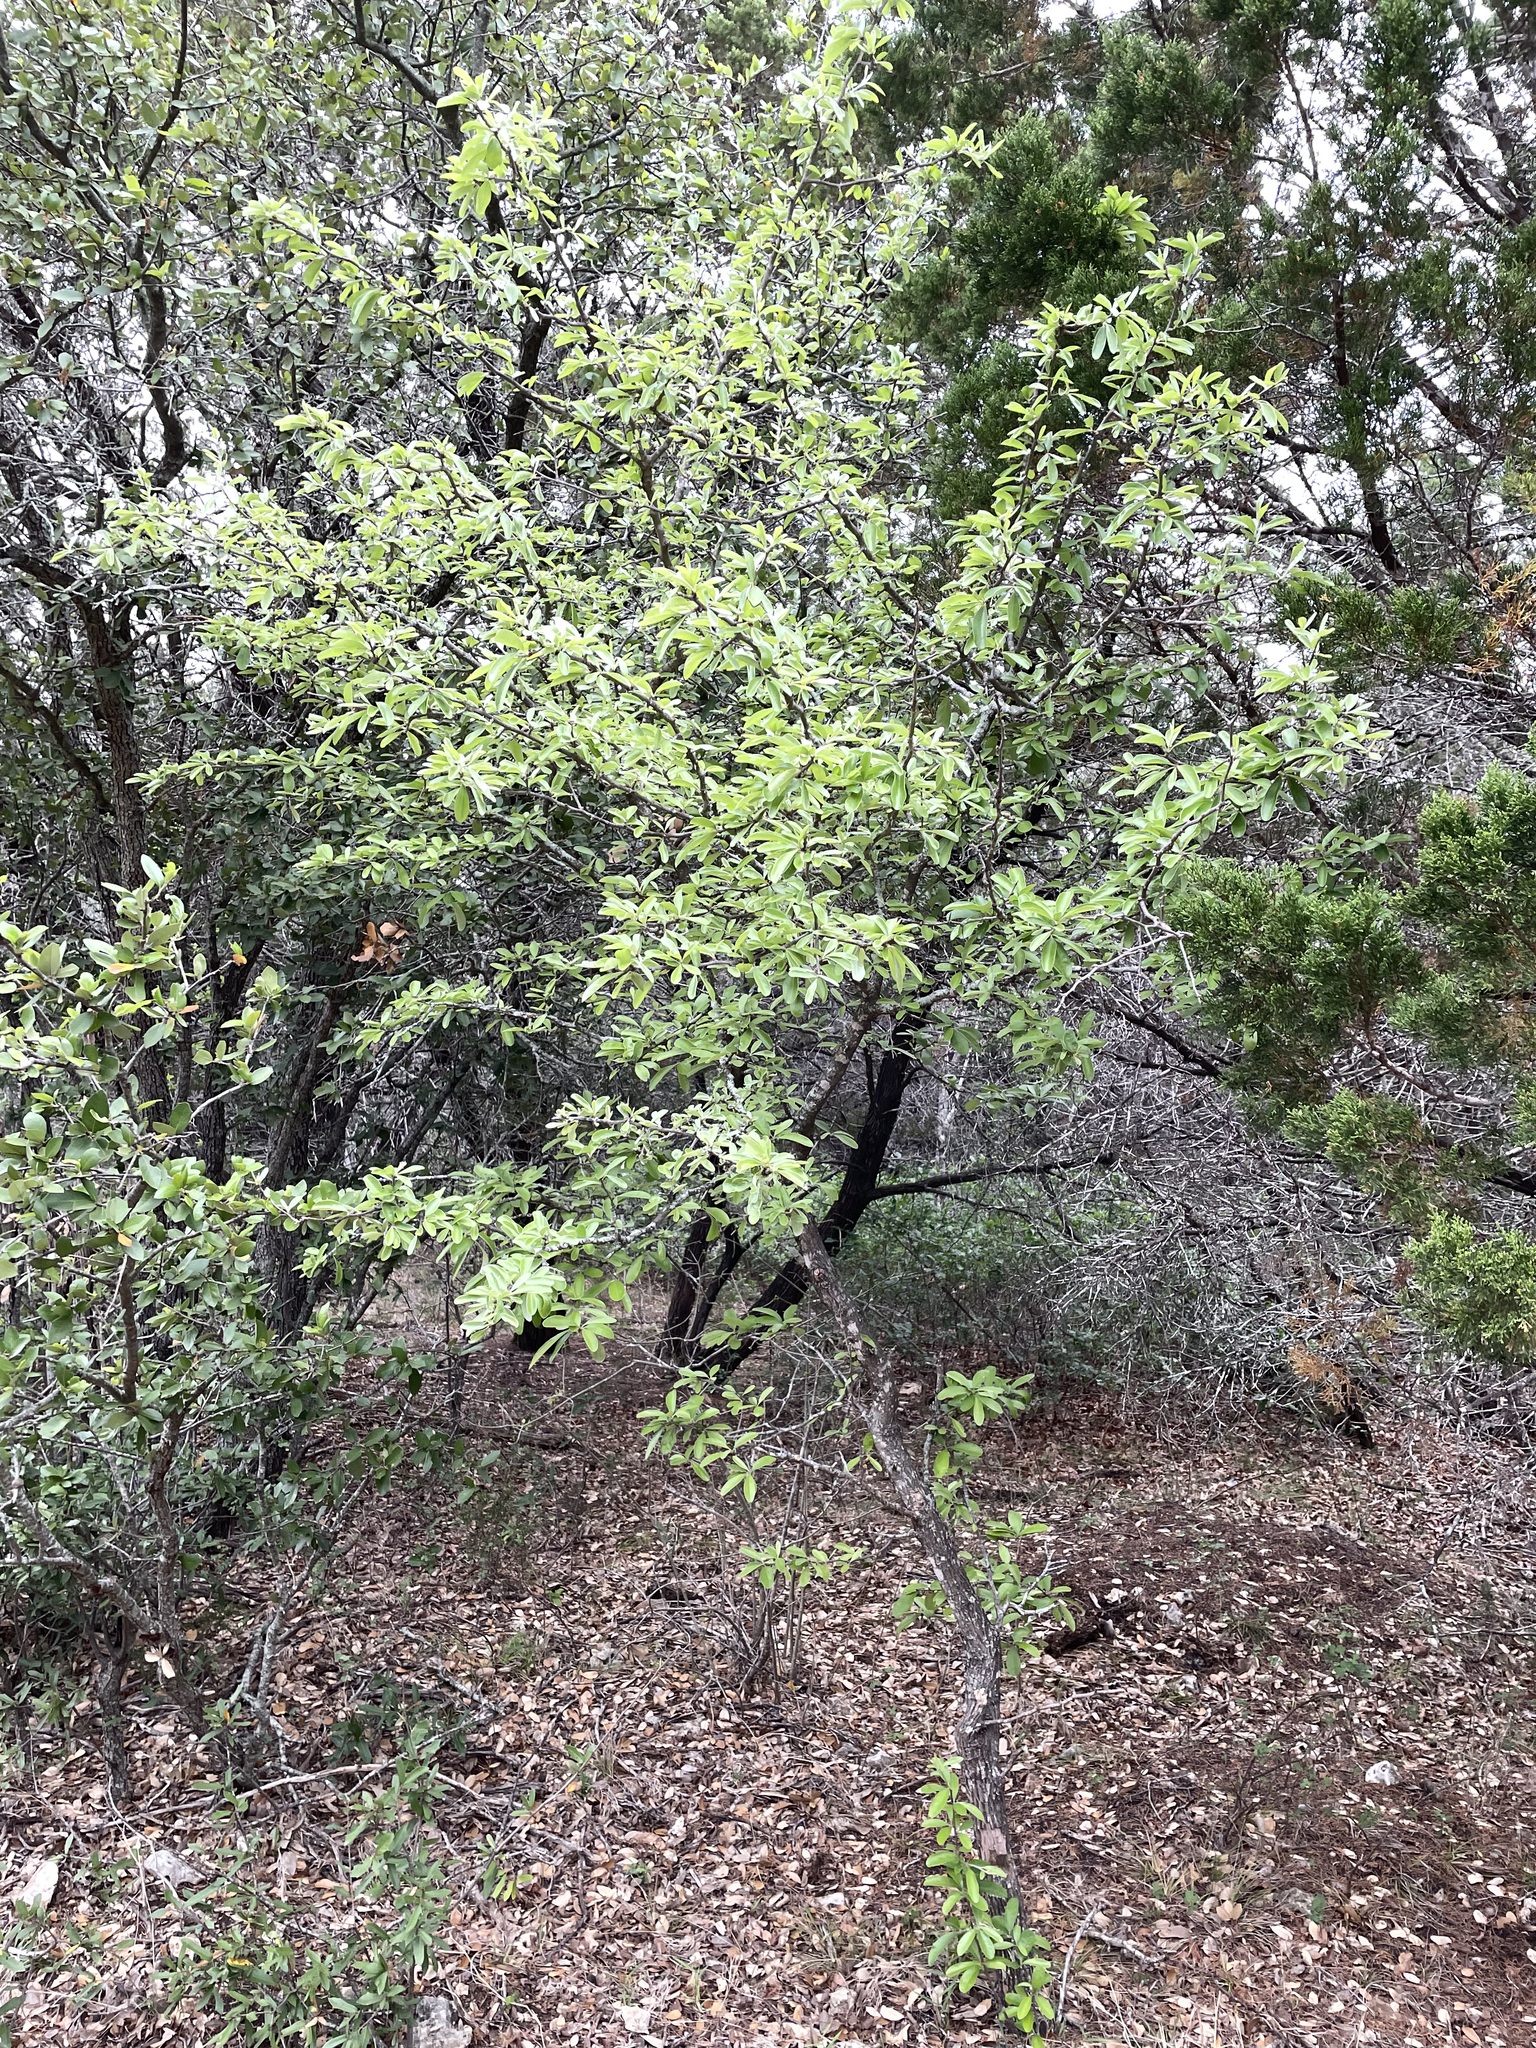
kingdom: Plantae
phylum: Tracheophyta
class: Magnoliopsida
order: Ericales
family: Sapotaceae
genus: Sideroxylon
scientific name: Sideroxylon lanuginosum
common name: Chittamwood
